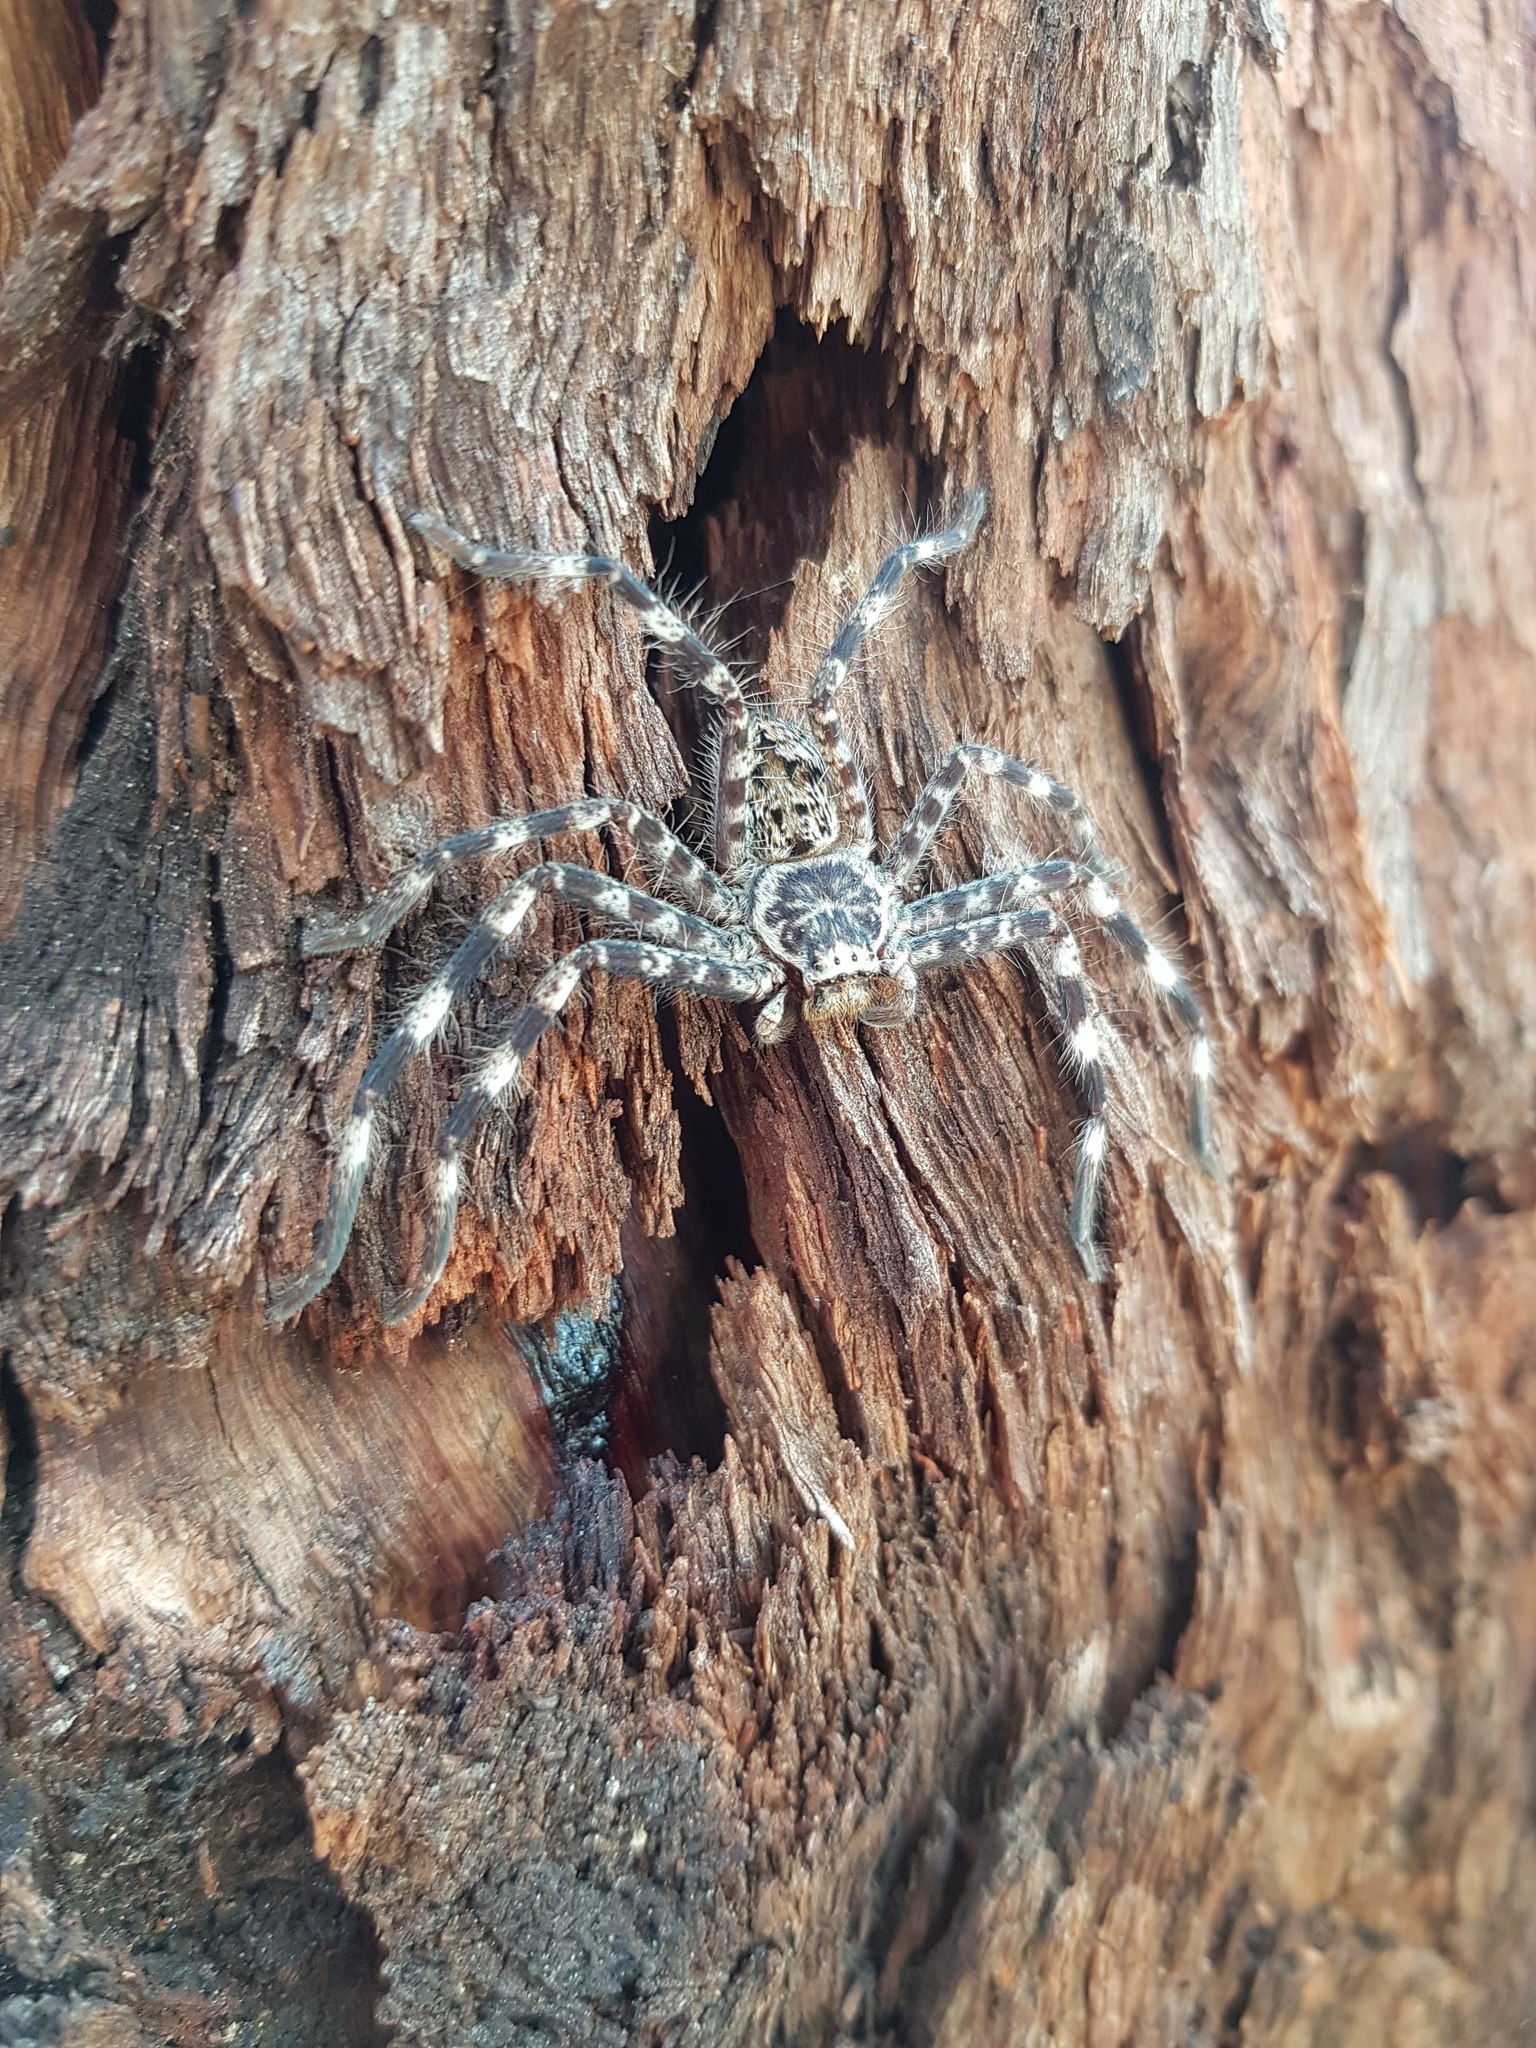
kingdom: Animalia
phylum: Arthropoda
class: Arachnida
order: Araneae
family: Sparassidae
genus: Holconia
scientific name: Holconia insignis
